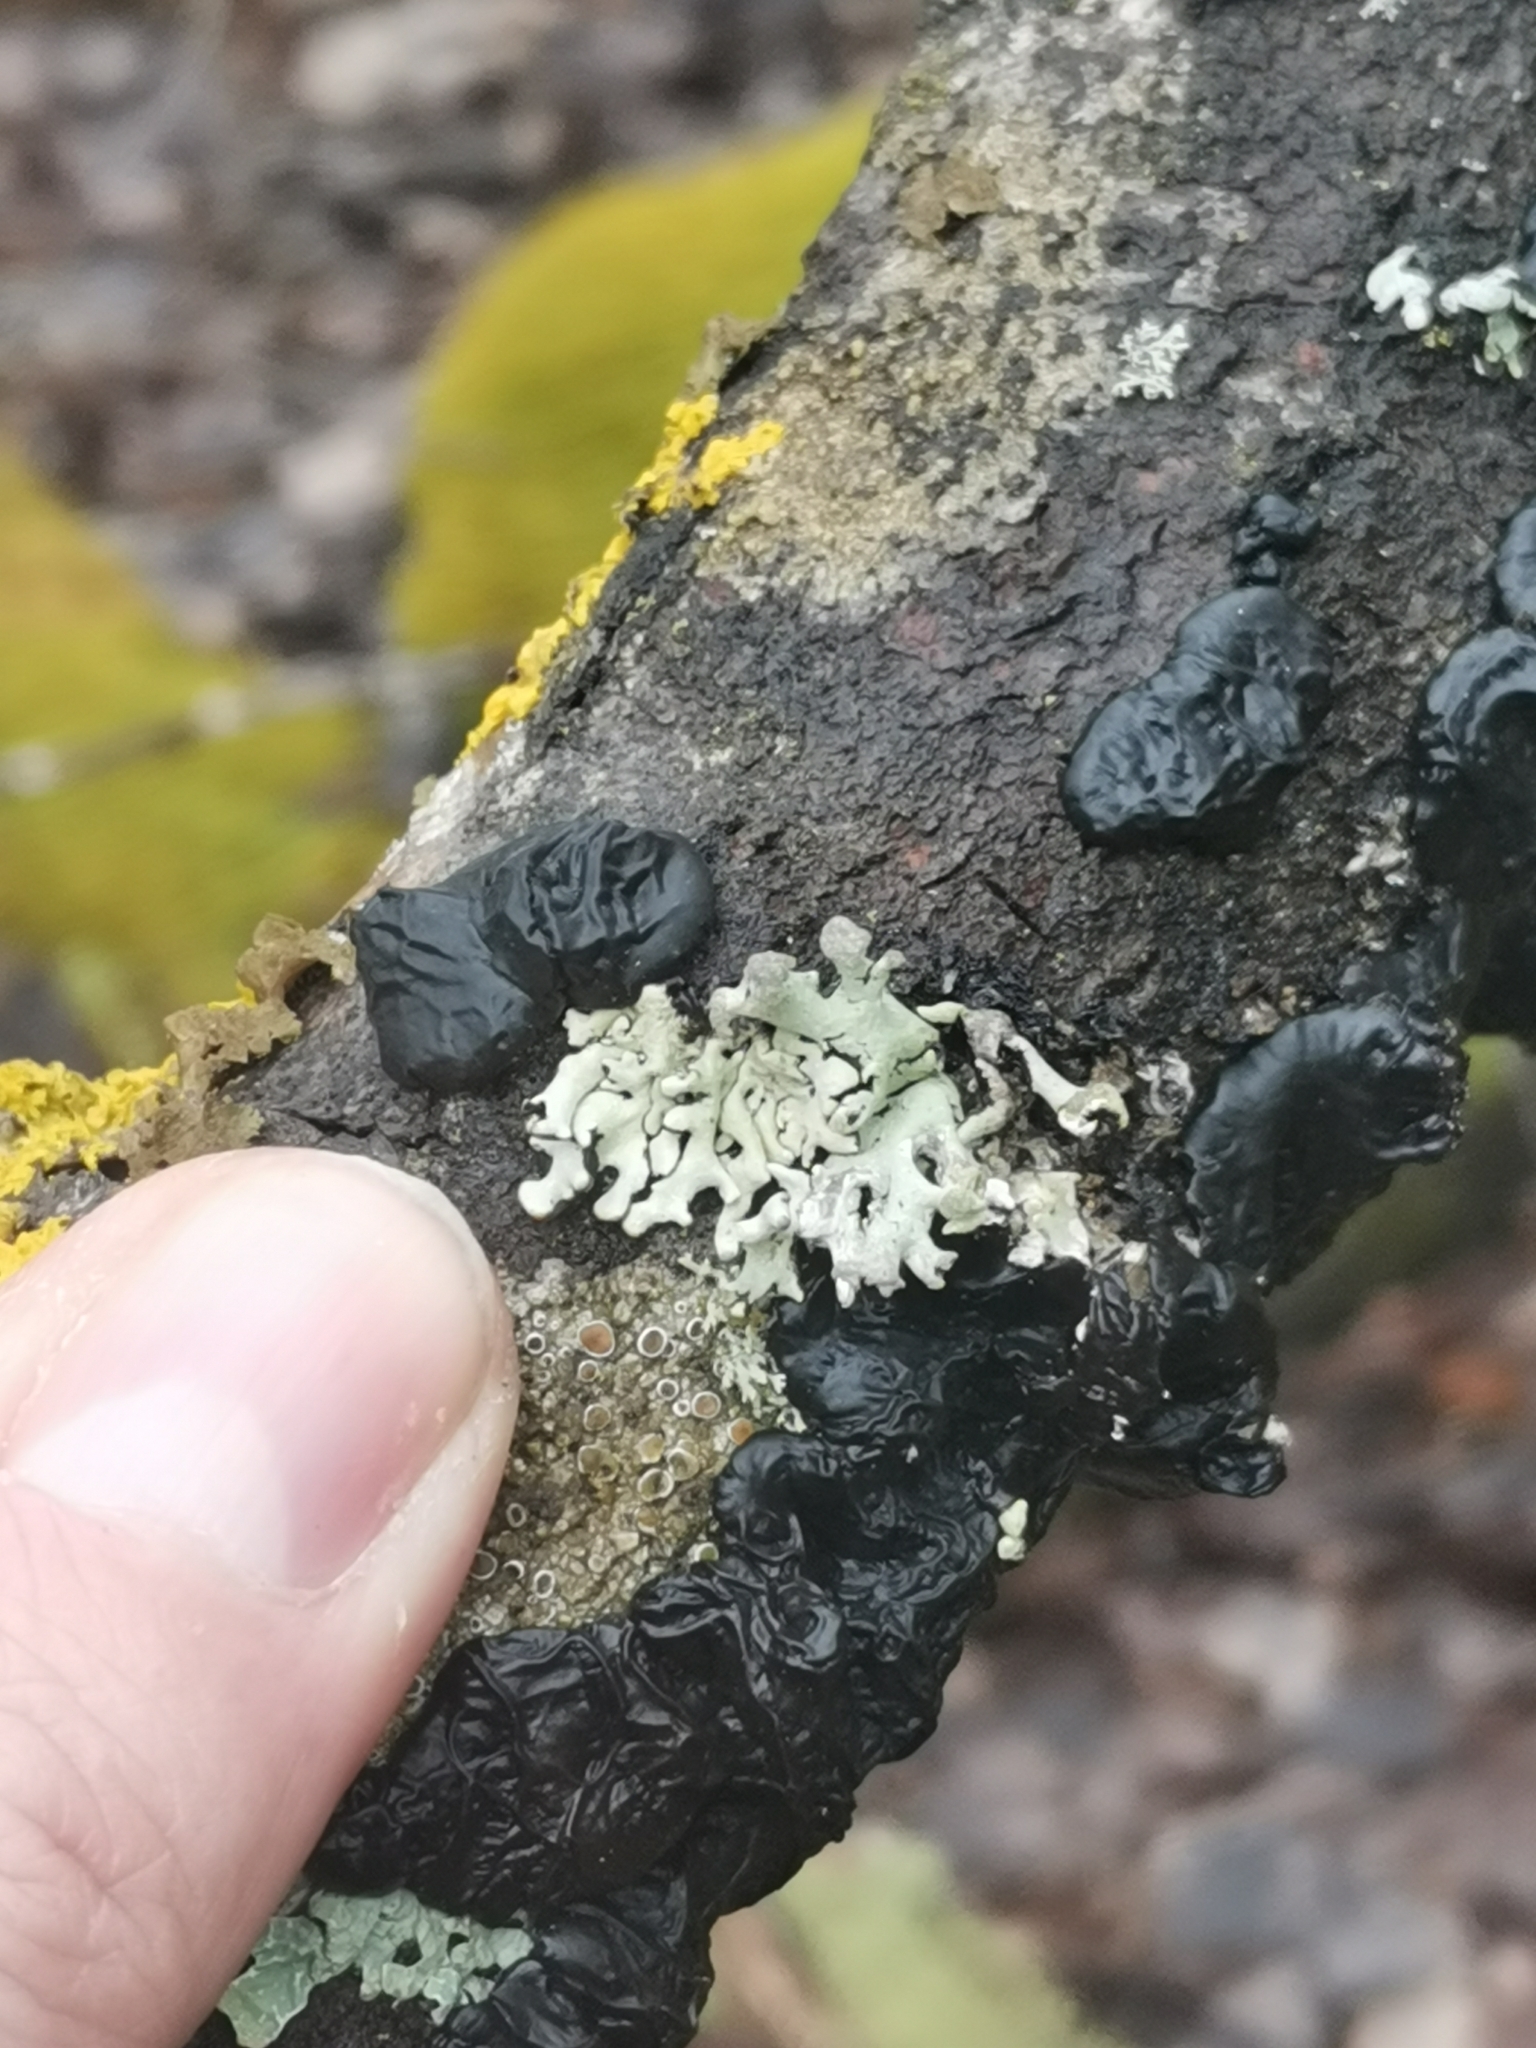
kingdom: Fungi
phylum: Basidiomycota
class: Agaricomycetes
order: Auriculariales
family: Auriculariaceae
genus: Exidia
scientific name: Exidia nigricans
